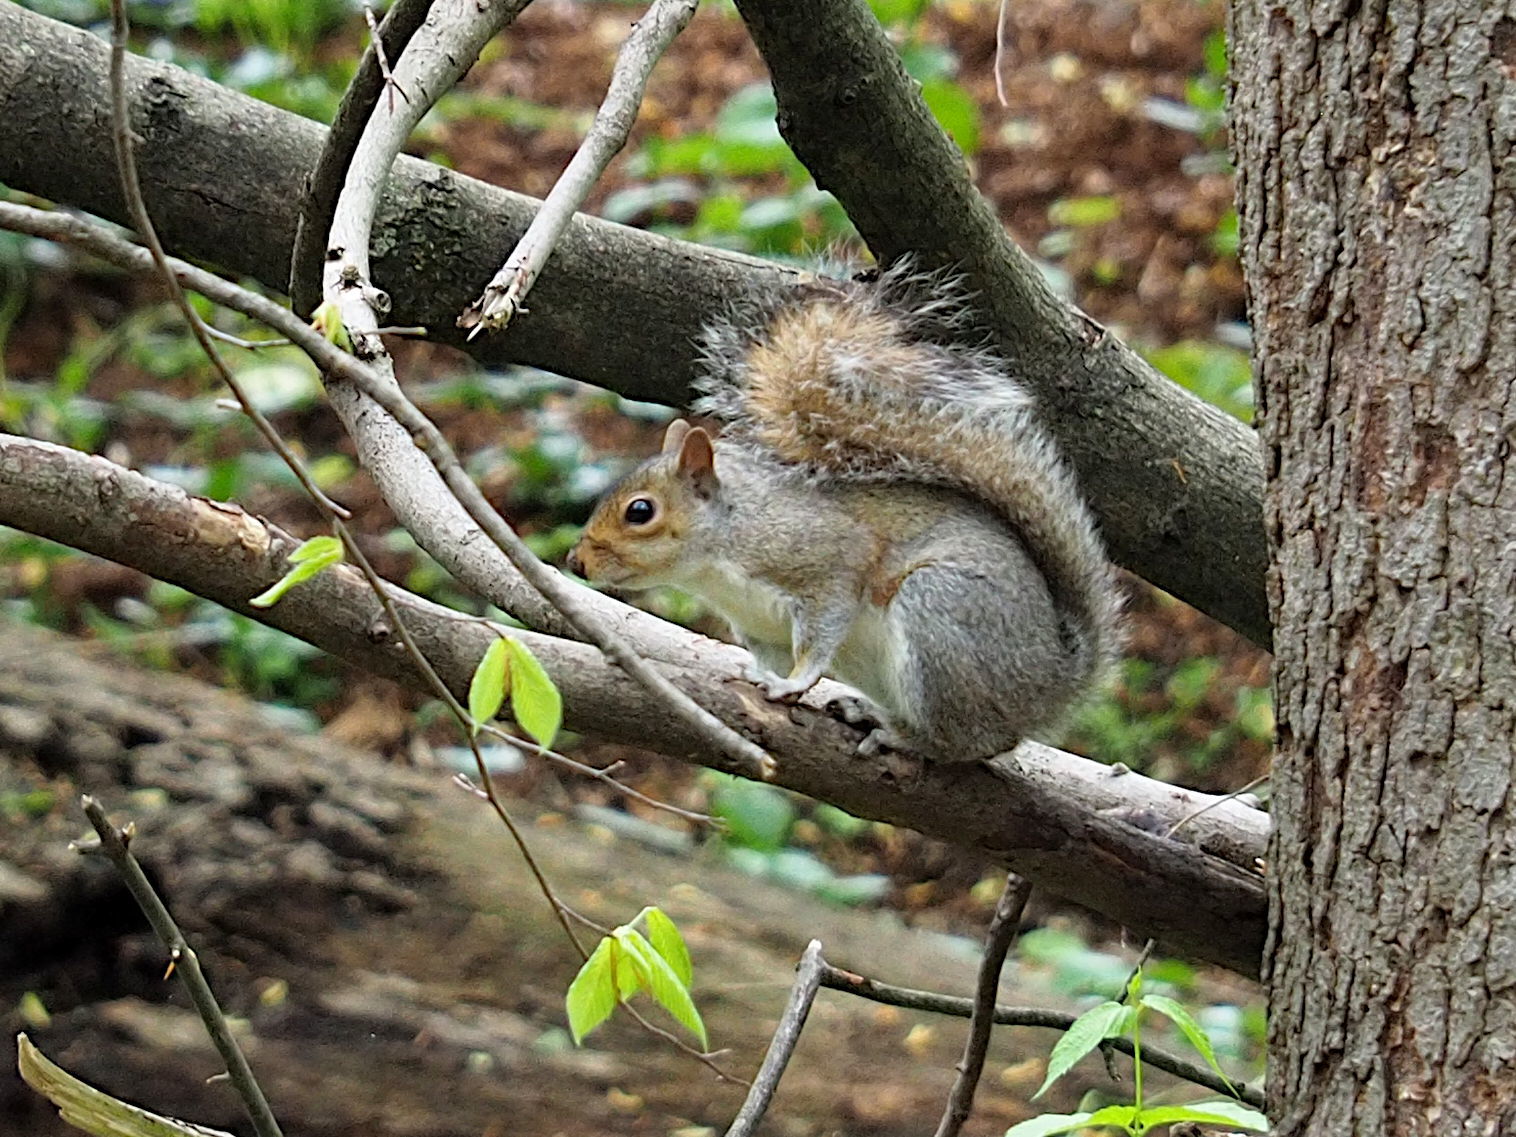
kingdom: Animalia
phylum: Chordata
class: Mammalia
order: Rodentia
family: Sciuridae
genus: Sciurus
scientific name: Sciurus carolinensis
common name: Eastern gray squirrel
